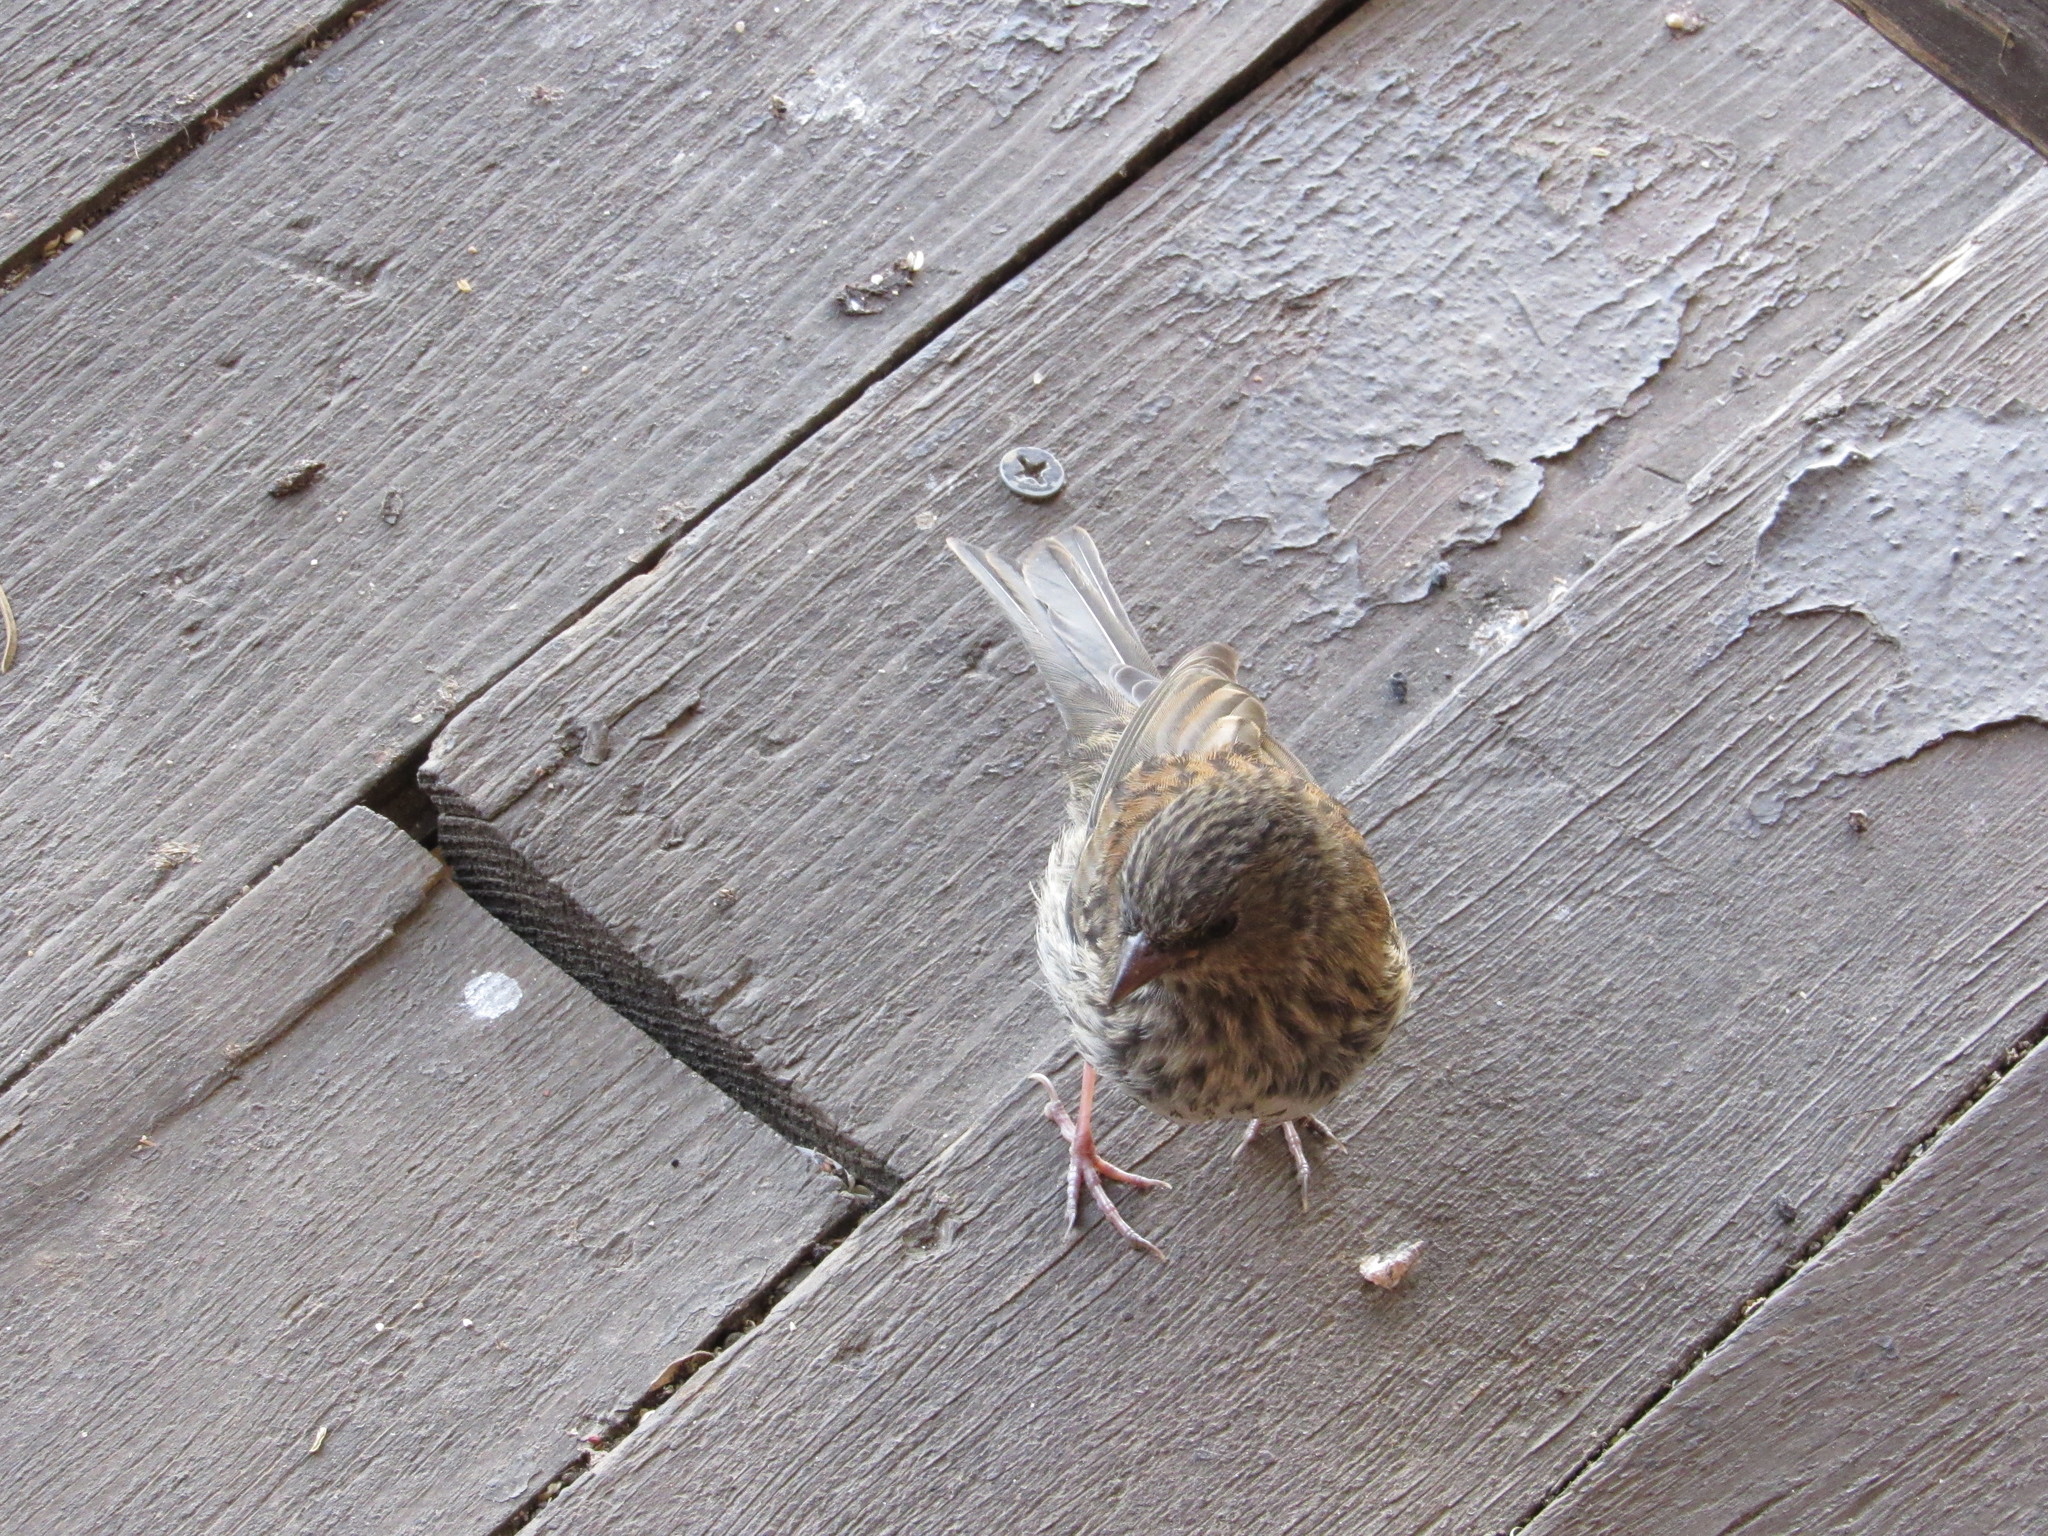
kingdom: Animalia
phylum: Chordata
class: Aves
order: Passeriformes
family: Passerellidae
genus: Junco
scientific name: Junco hyemalis
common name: Dark-eyed junco
